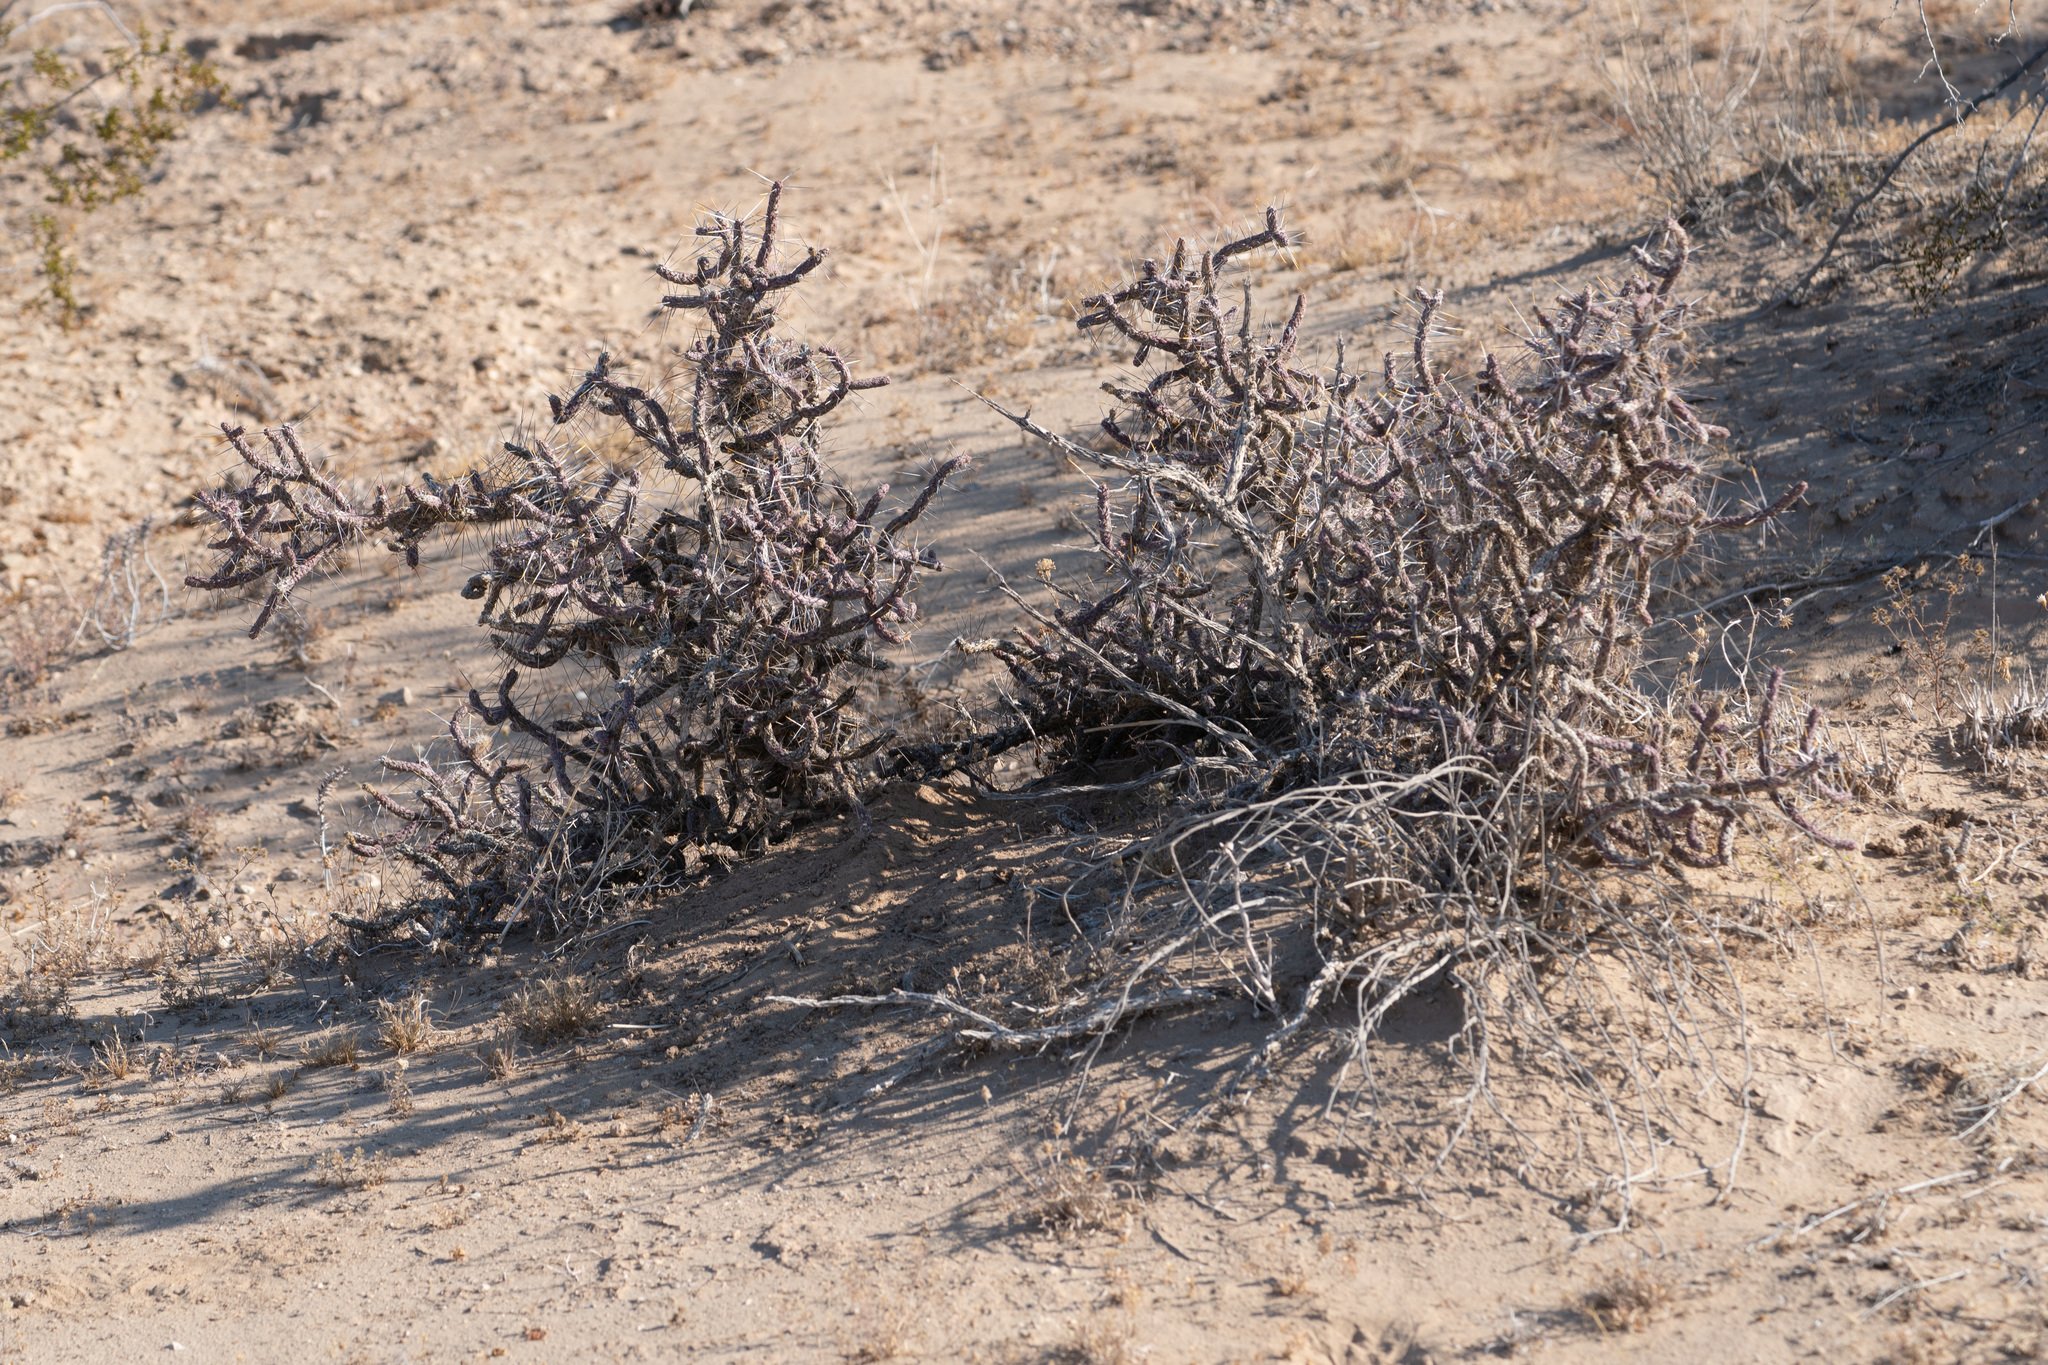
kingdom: Plantae
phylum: Tracheophyta
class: Magnoliopsida
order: Caryophyllales
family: Cactaceae
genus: Cylindropuntia
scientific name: Cylindropuntia ramosissima
